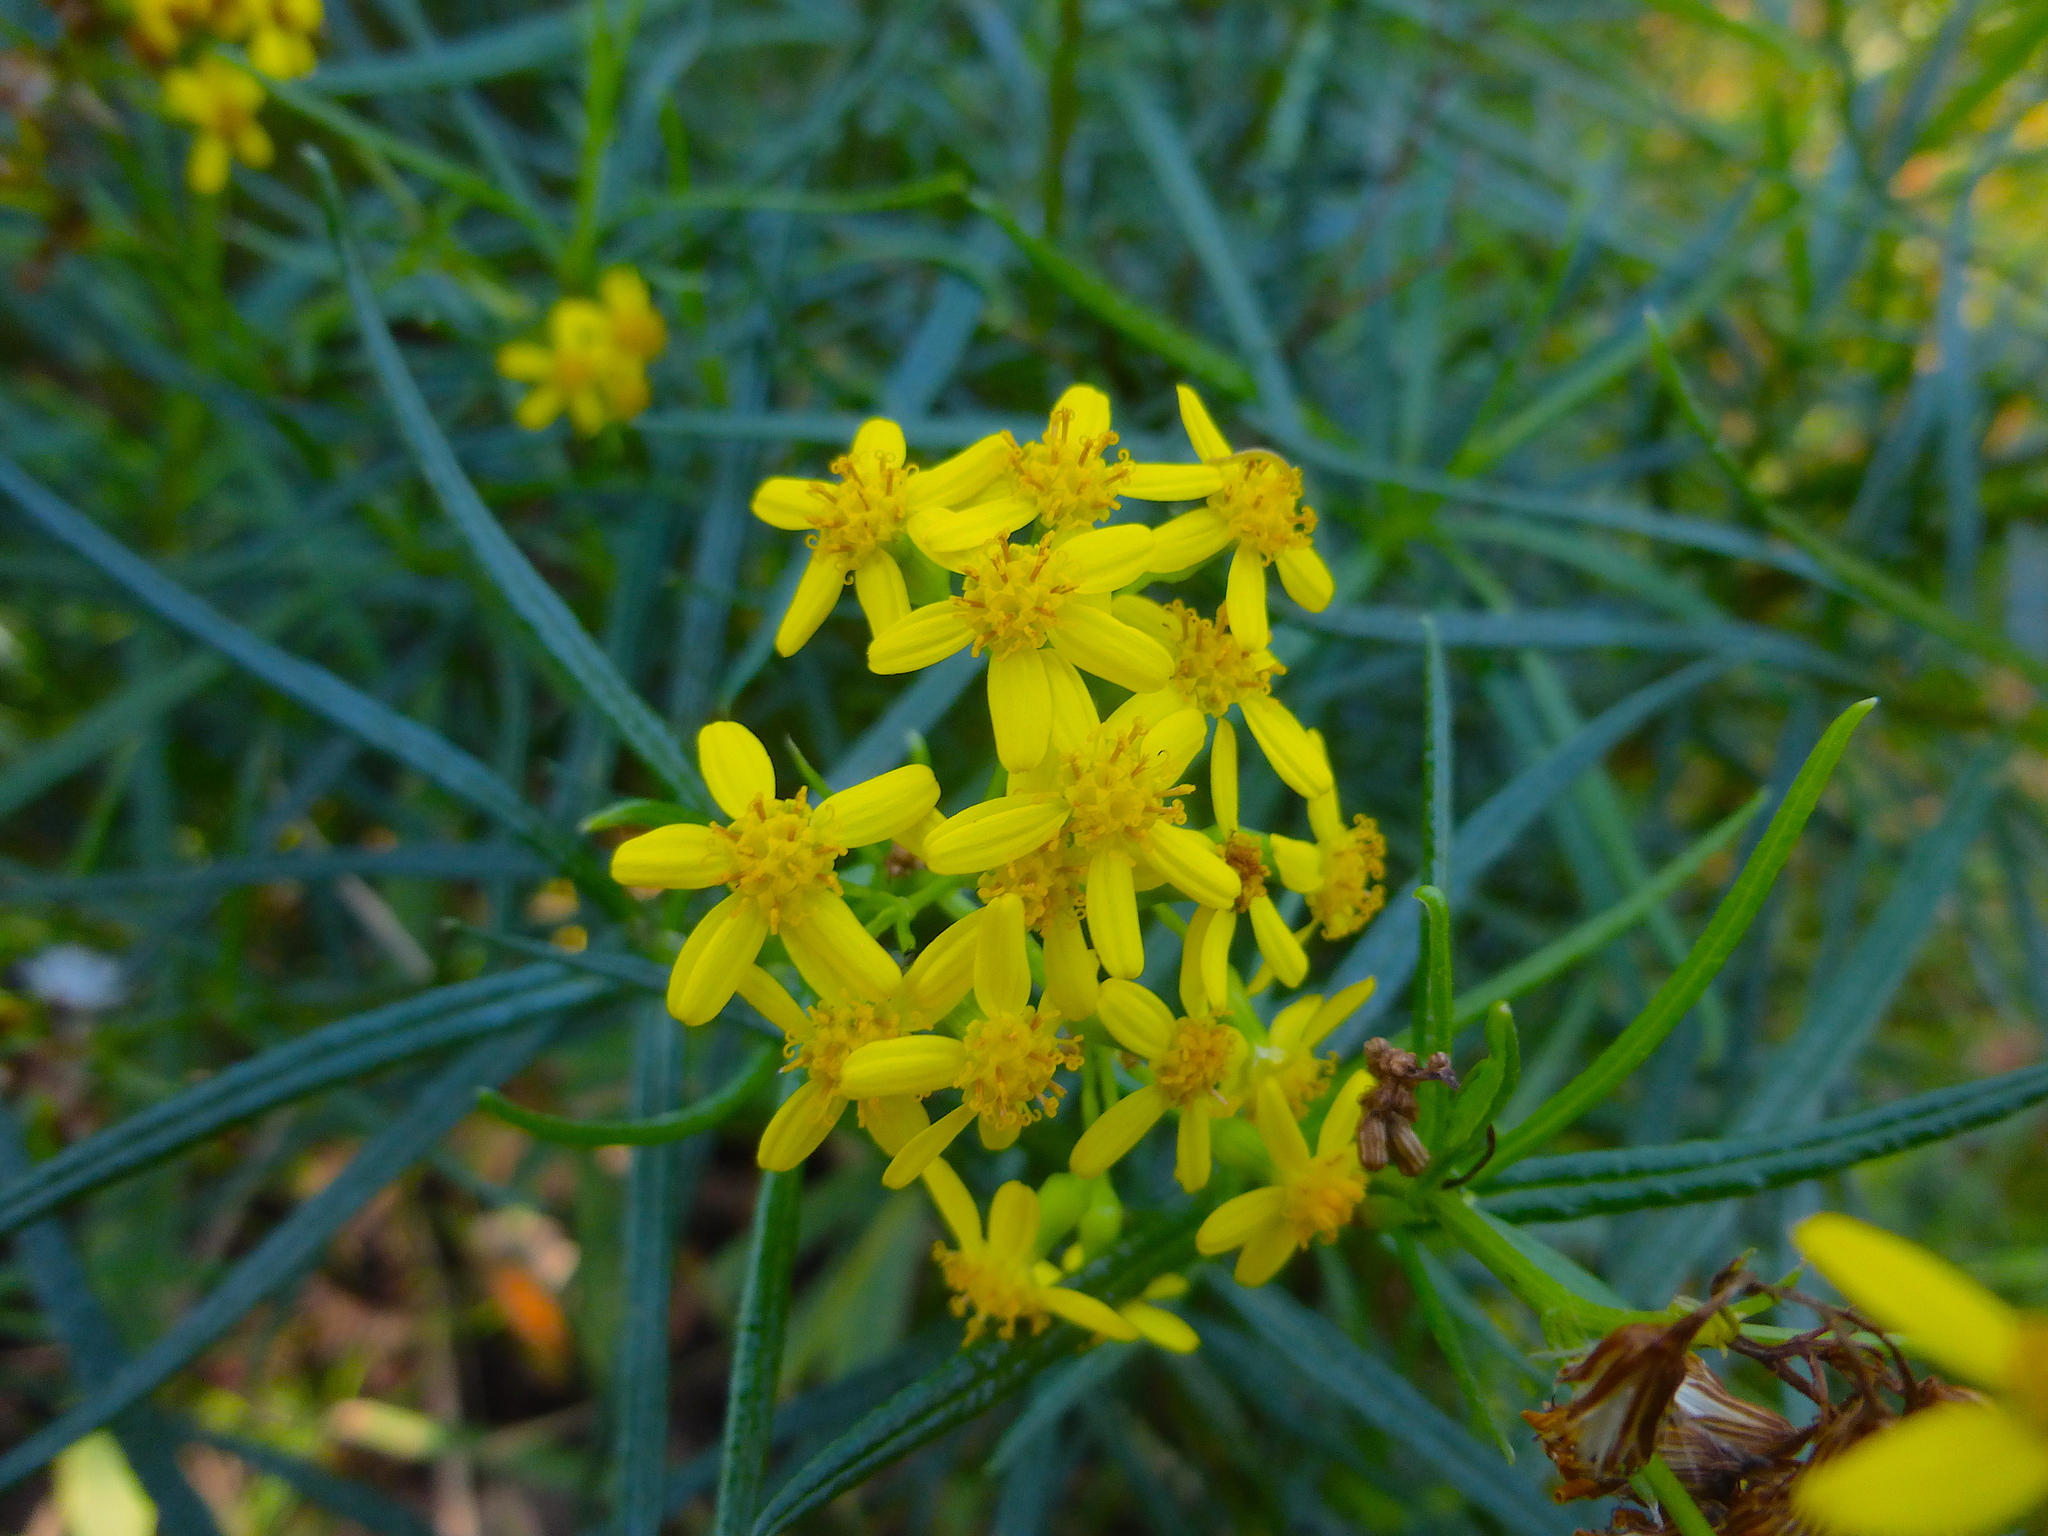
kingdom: Plantae
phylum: Tracheophyta
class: Magnoliopsida
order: Asterales
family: Asteraceae
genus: Senecio
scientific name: Senecio linearifolius
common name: Fireweed groundsel
